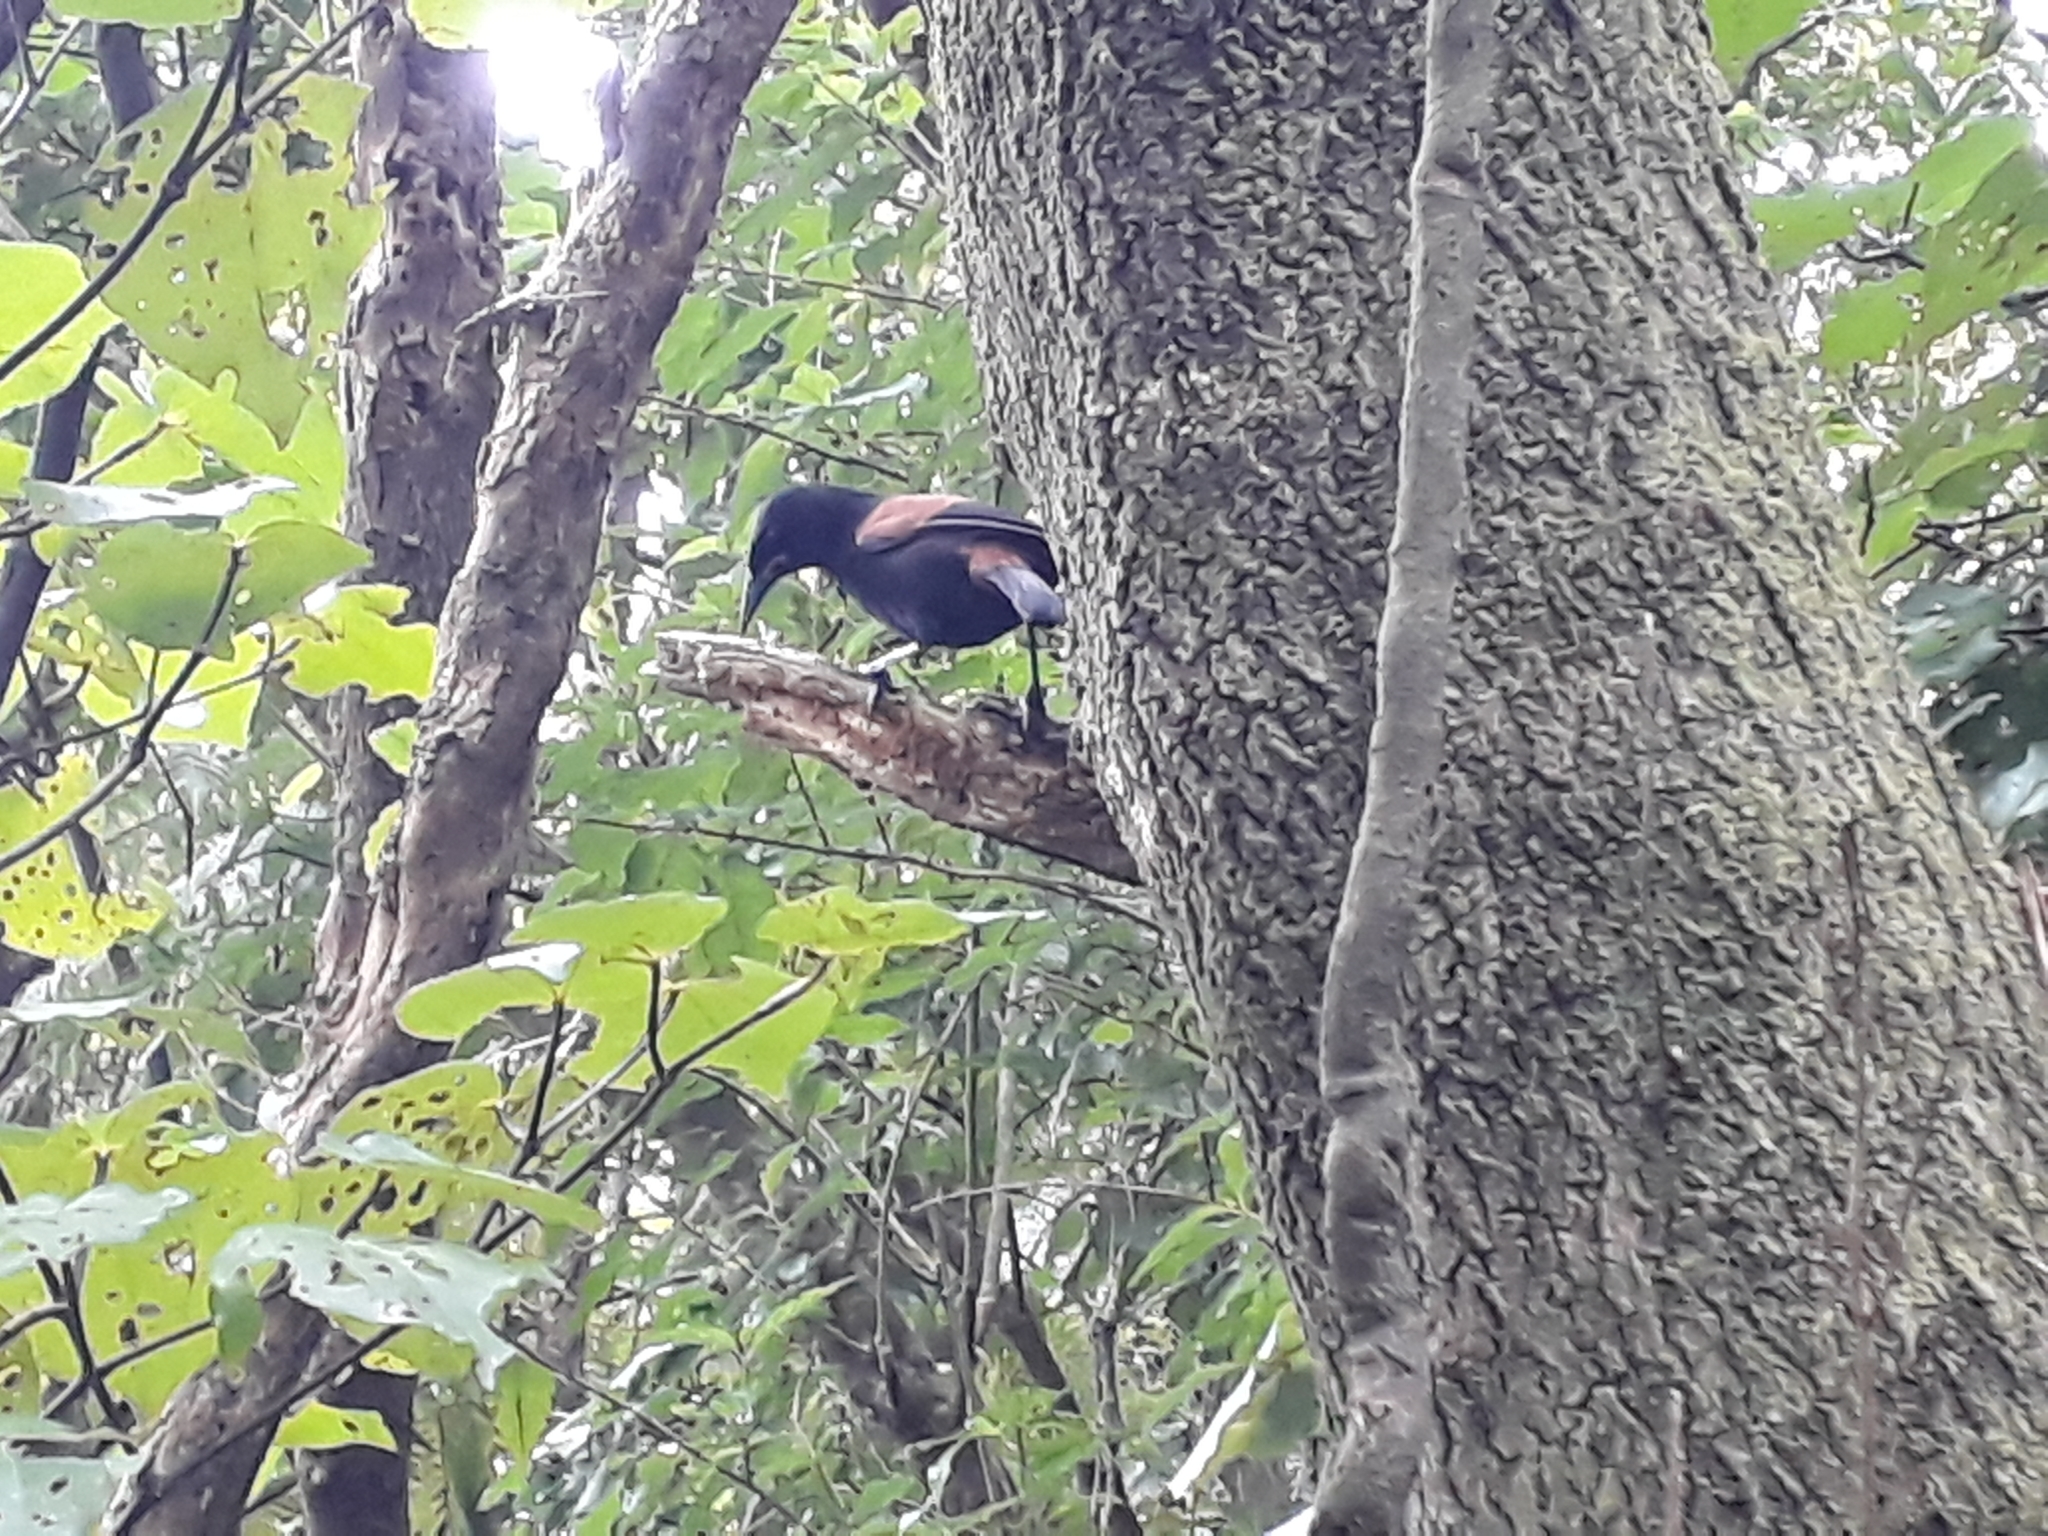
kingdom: Animalia
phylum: Chordata
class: Aves
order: Passeriformes
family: Callaeatidae
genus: Philesturnus
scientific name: Philesturnus carunculatus
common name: South island saddleback
